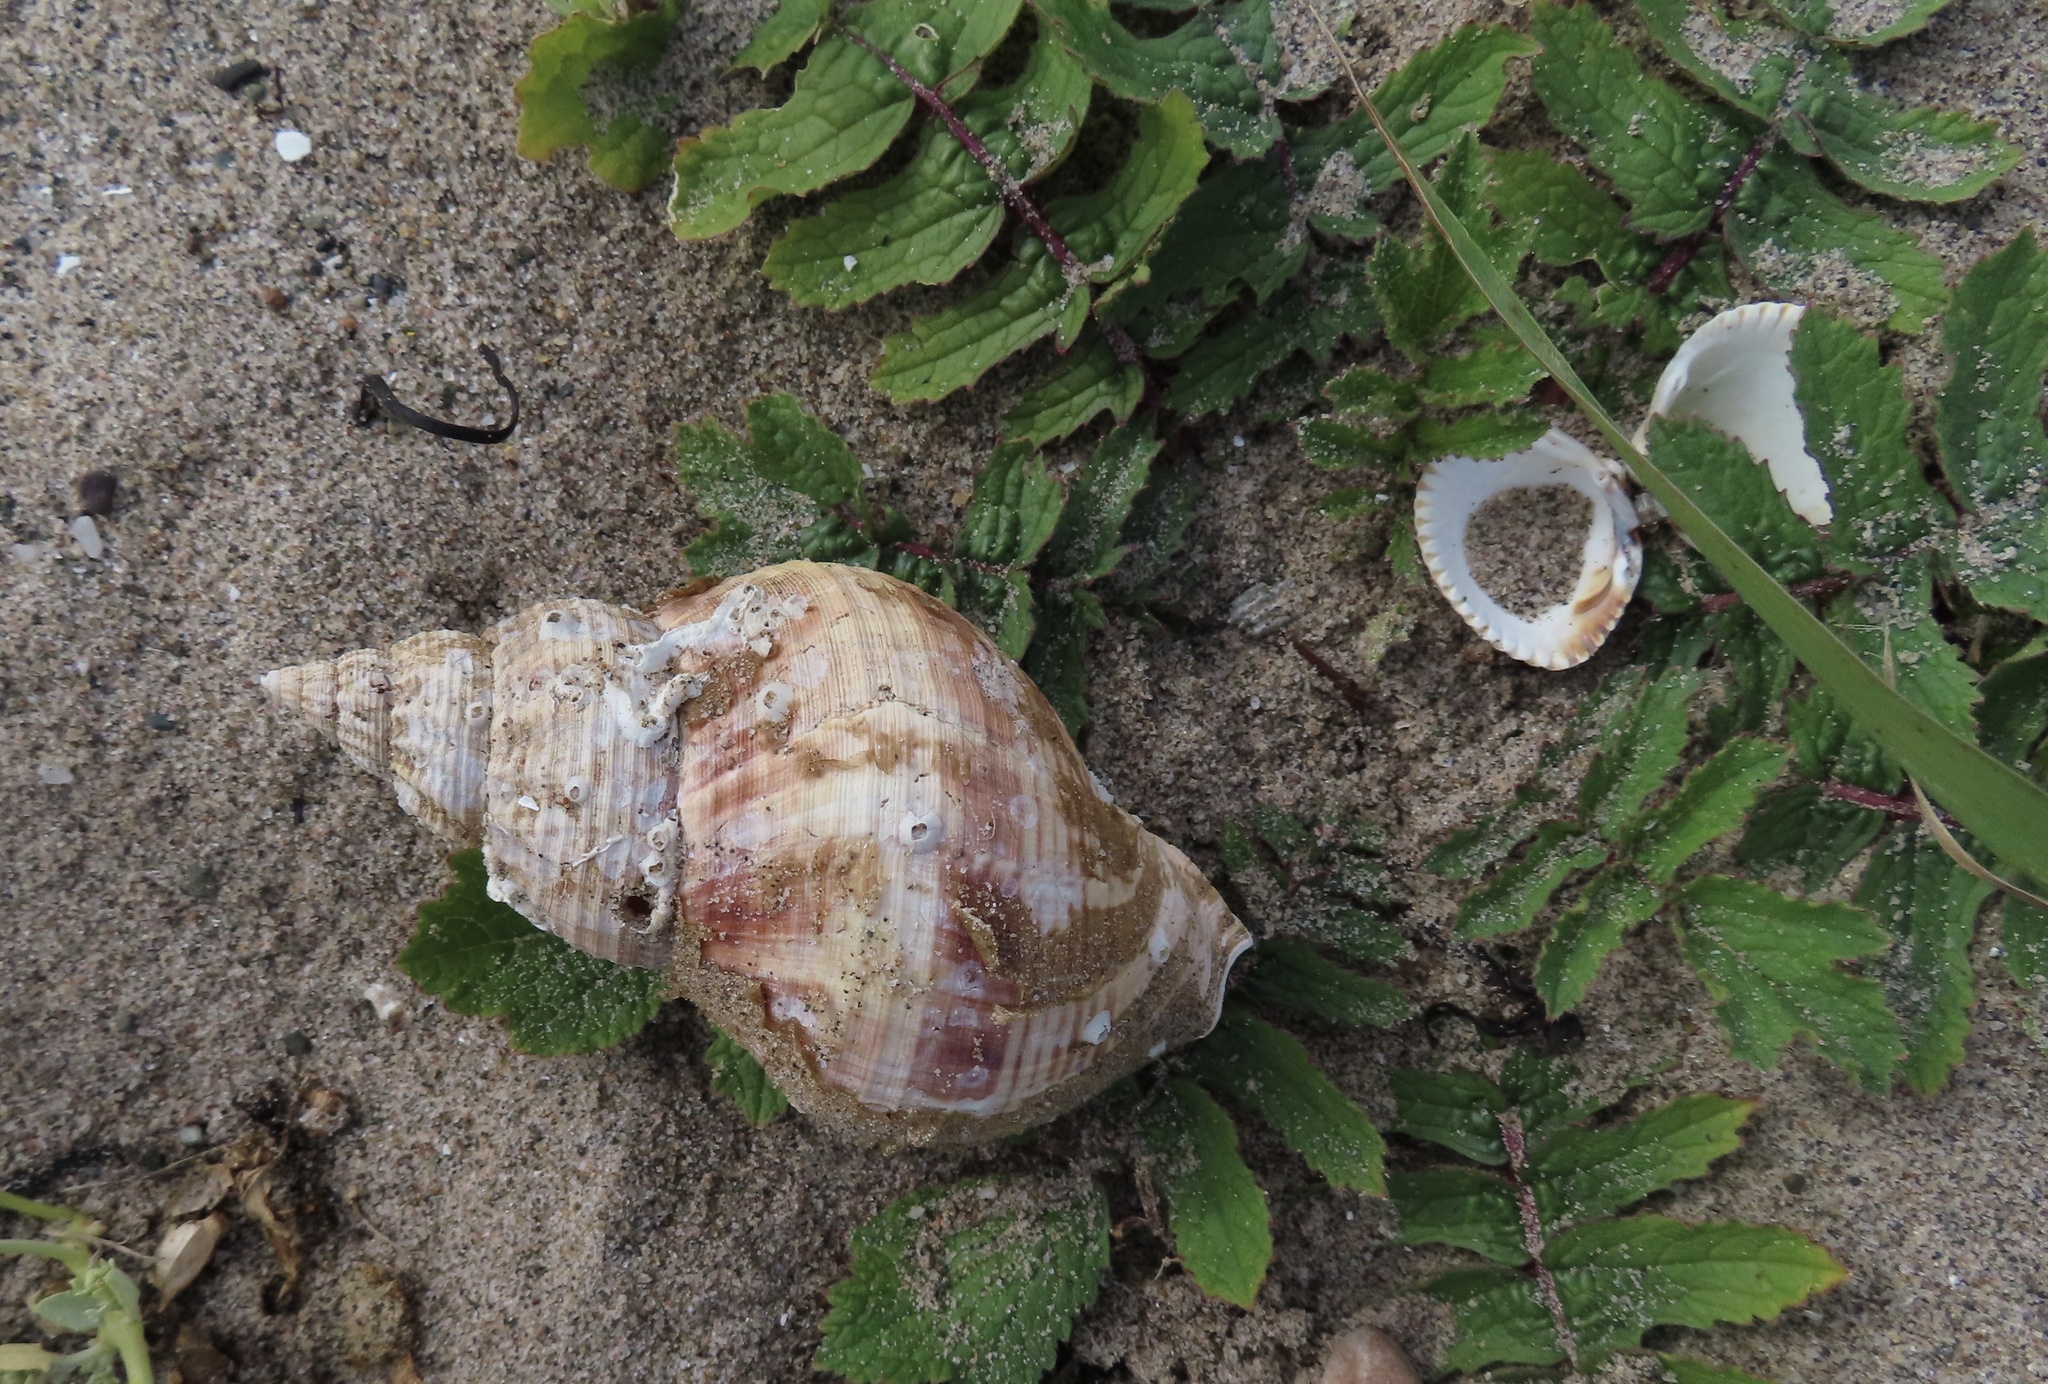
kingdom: Animalia
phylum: Mollusca
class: Gastropoda
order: Neogastropoda
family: Buccinidae
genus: Buccinum
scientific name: Buccinum undatum
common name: Common whelk
